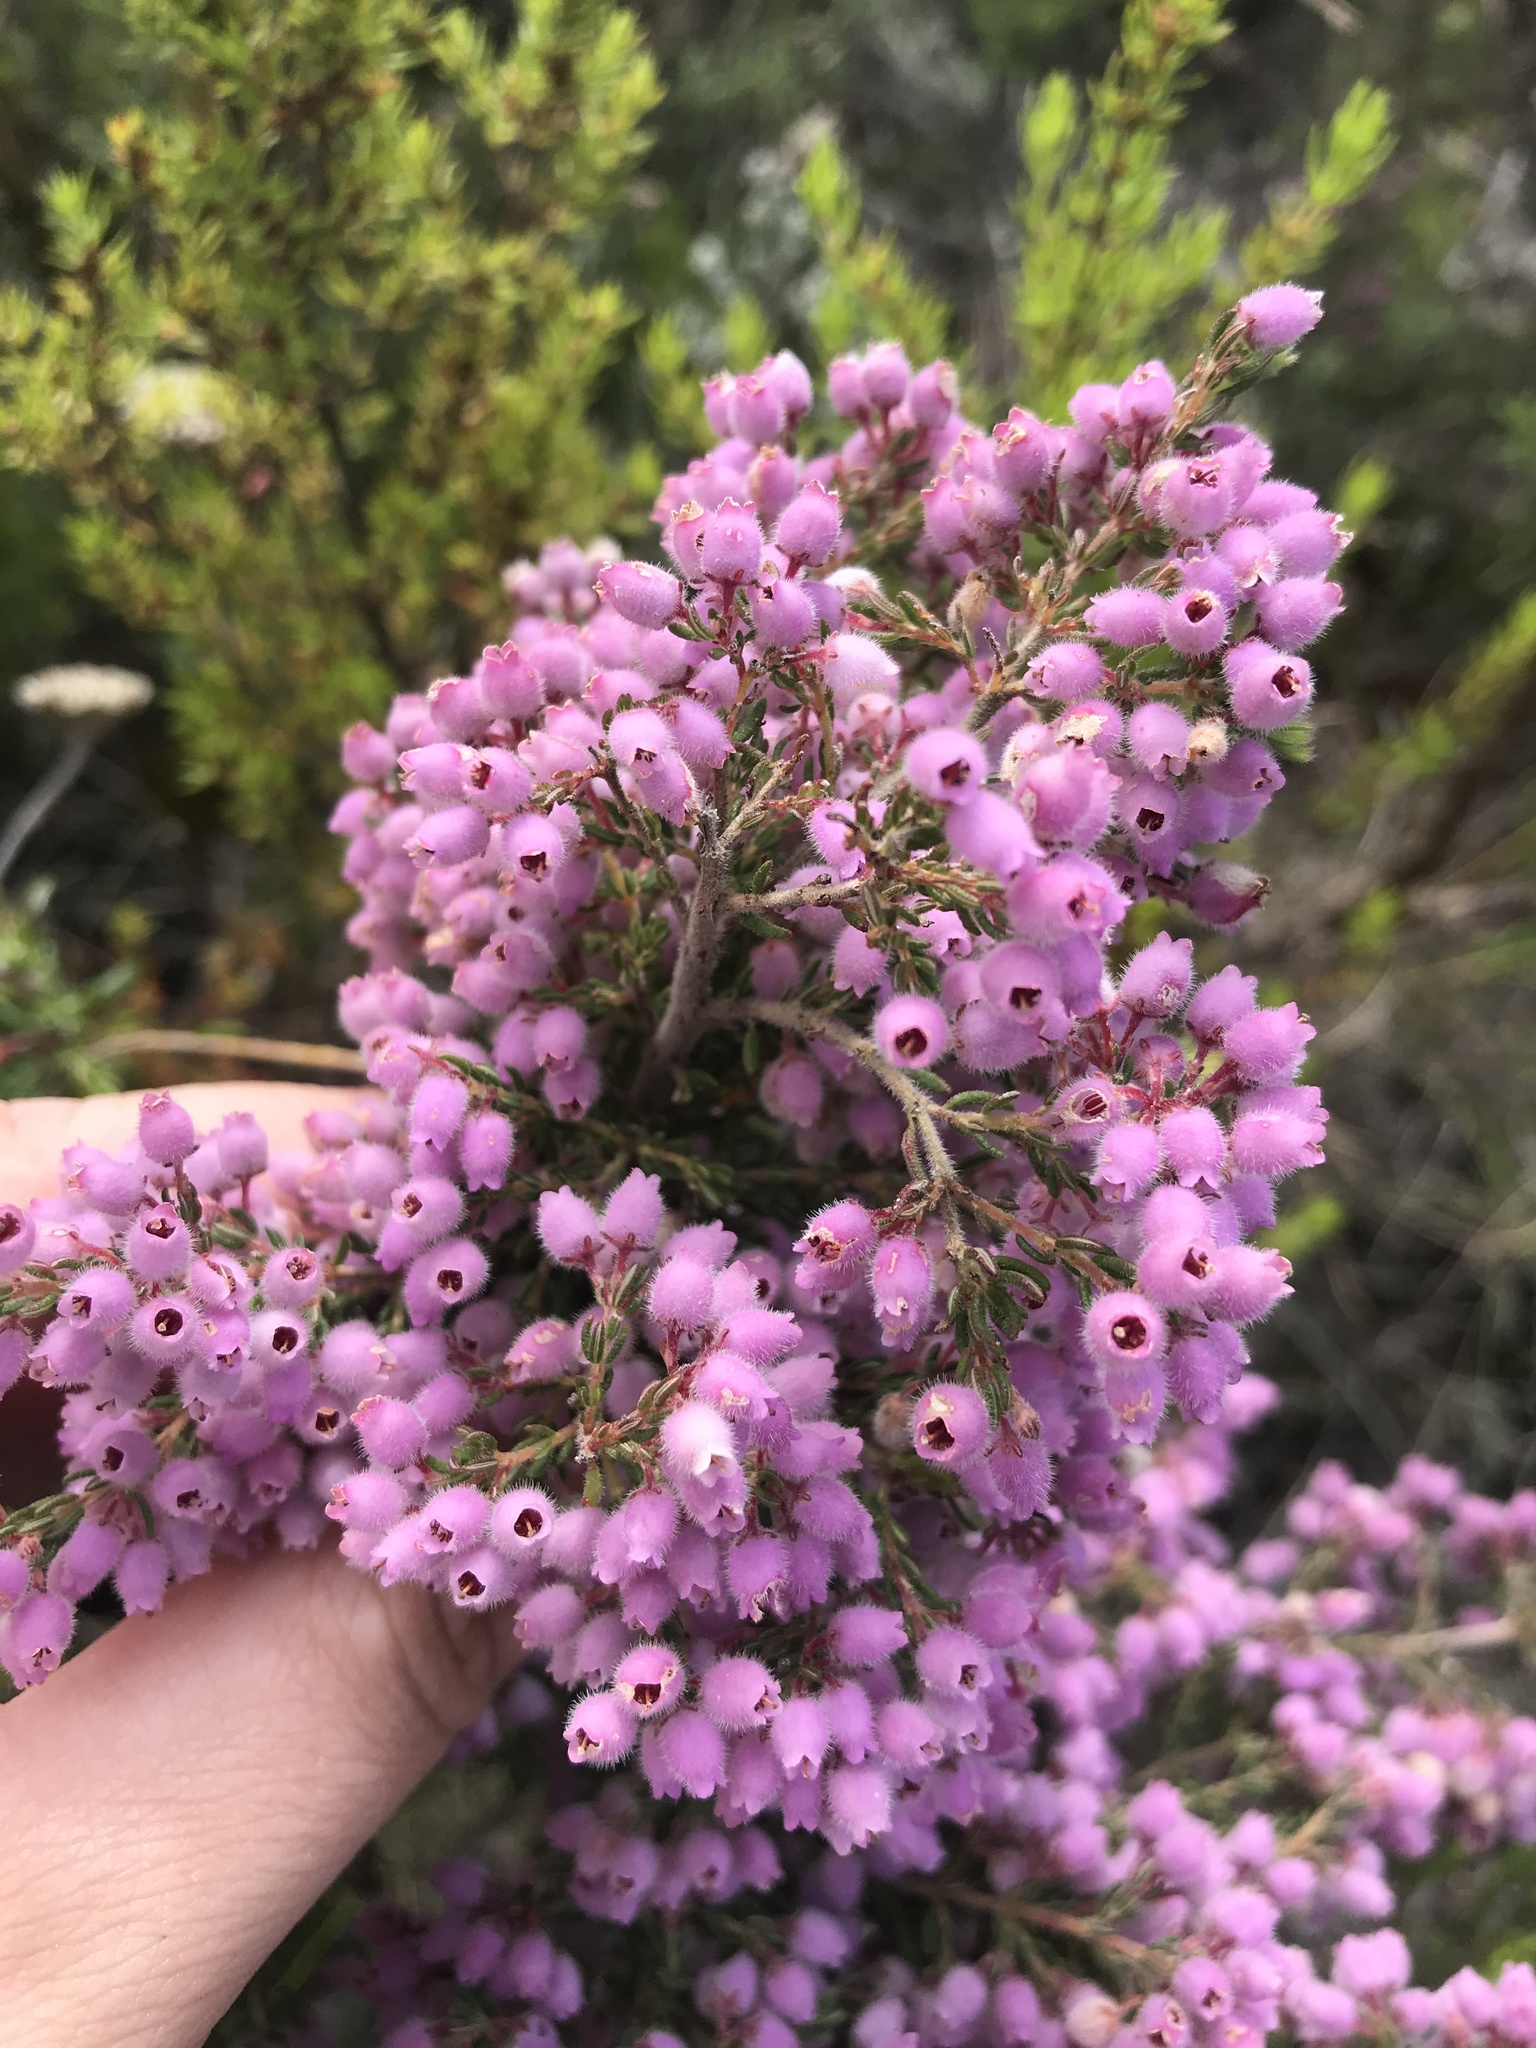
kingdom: Plantae
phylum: Tracheophyta
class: Magnoliopsida
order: Ericales
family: Ericaceae
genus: Erica
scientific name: Erica hirtiflora
